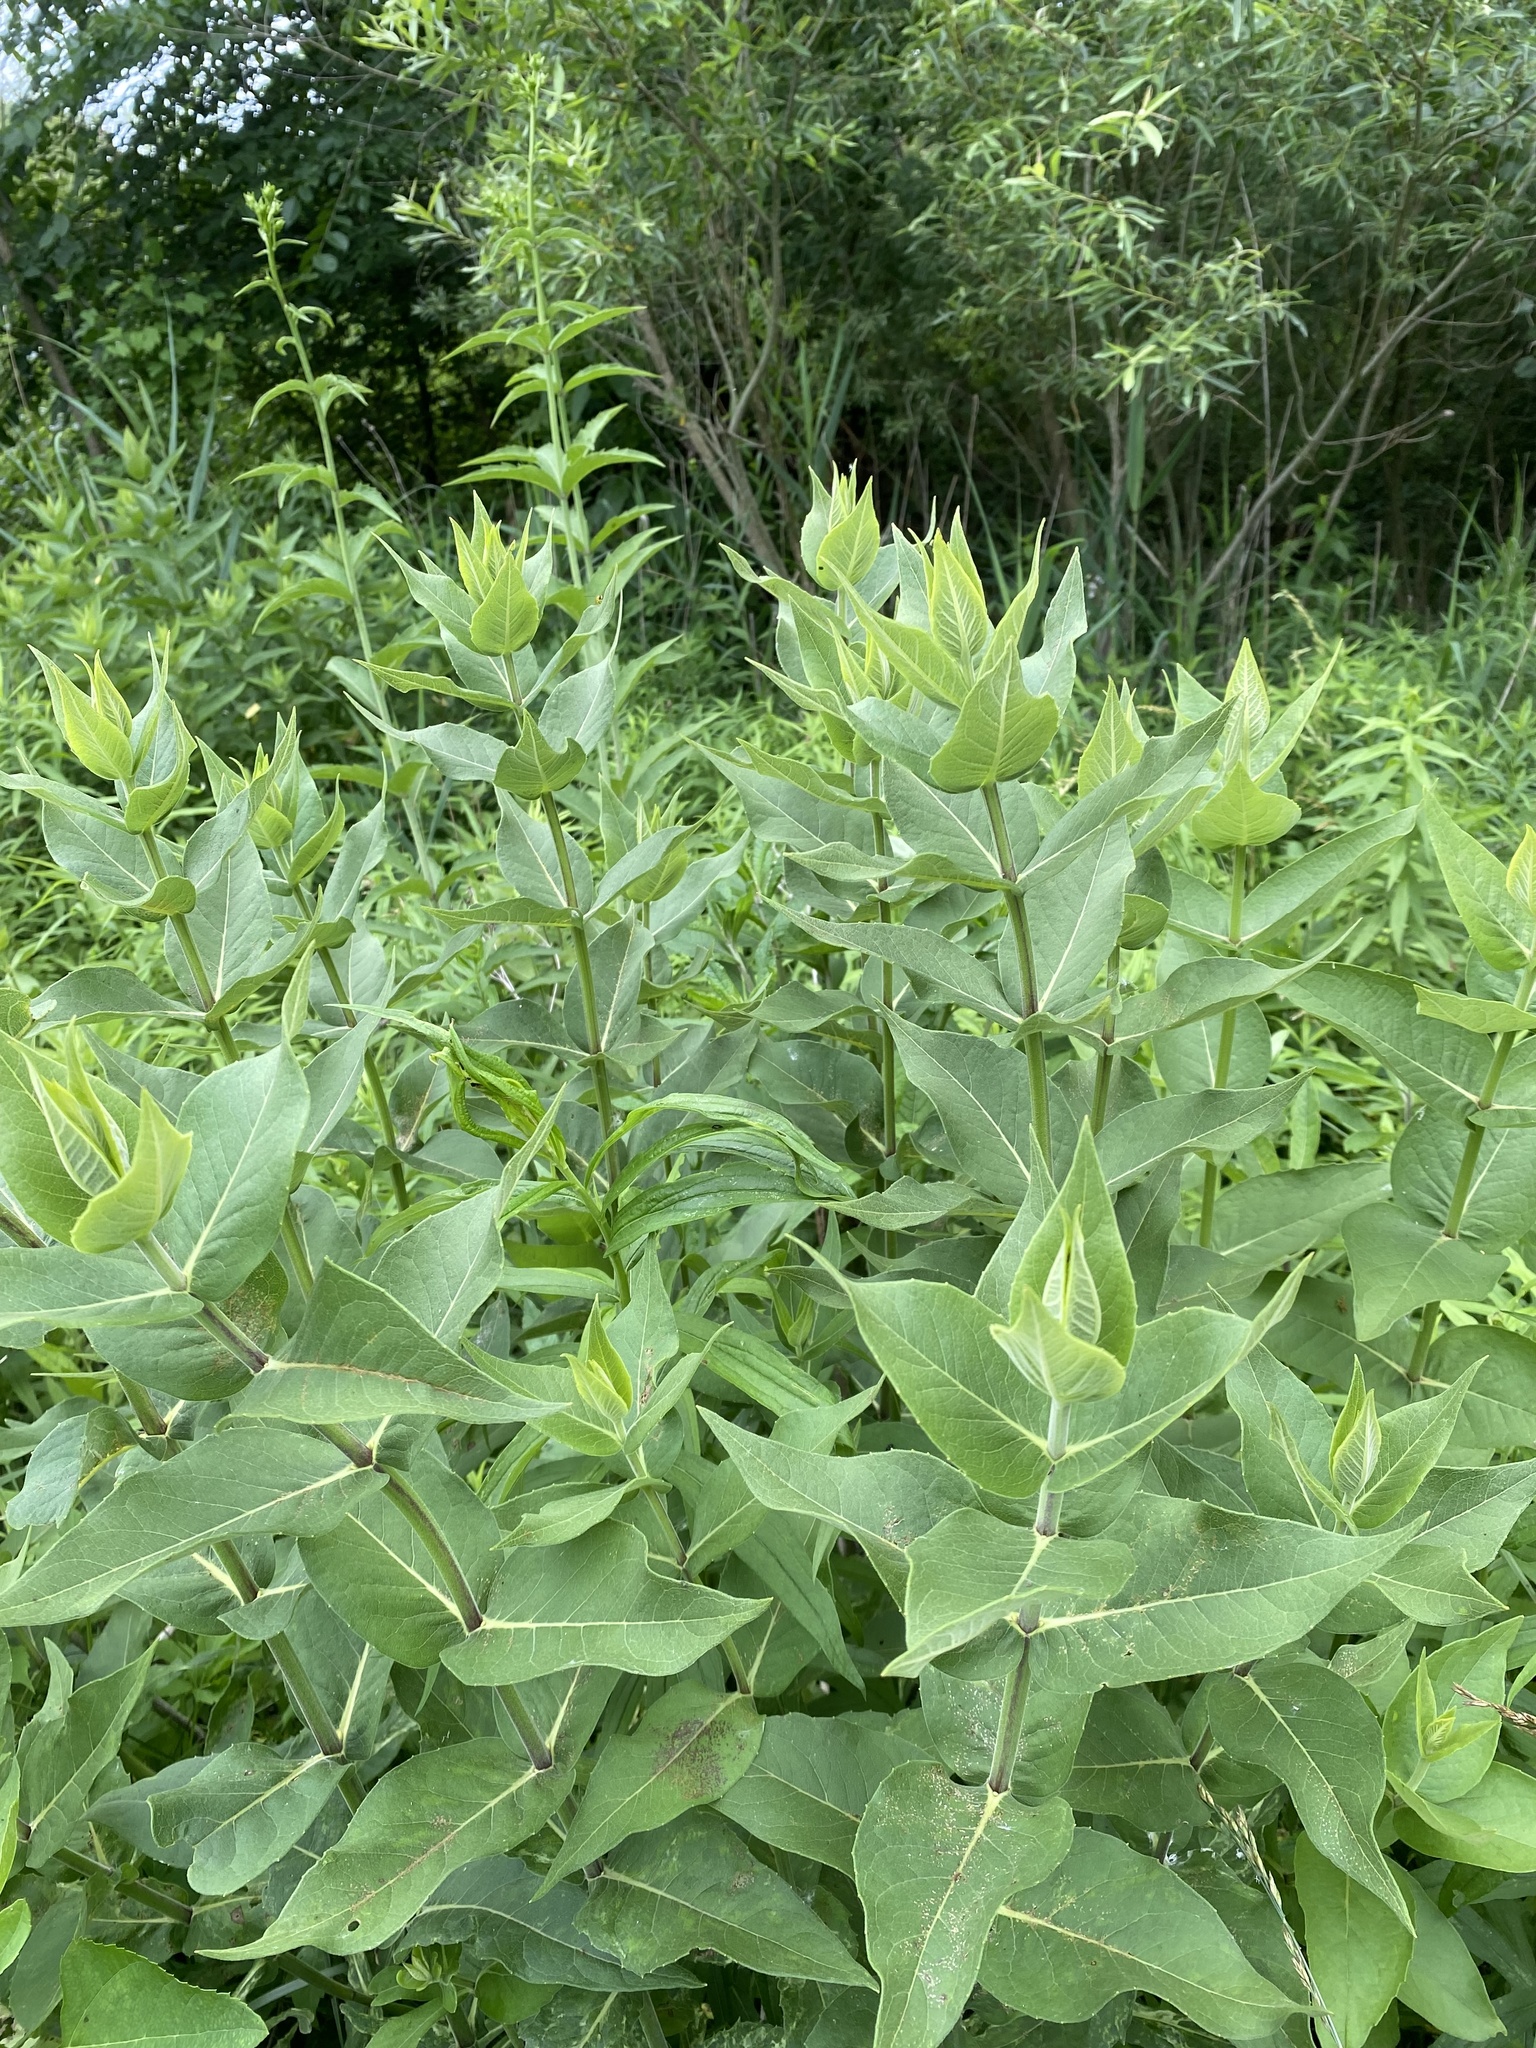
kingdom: Plantae
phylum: Tracheophyta
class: Magnoliopsida
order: Asterales
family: Asteraceae
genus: Silphium
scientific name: Silphium integrifolium
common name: Whole-leaf rosinweed
